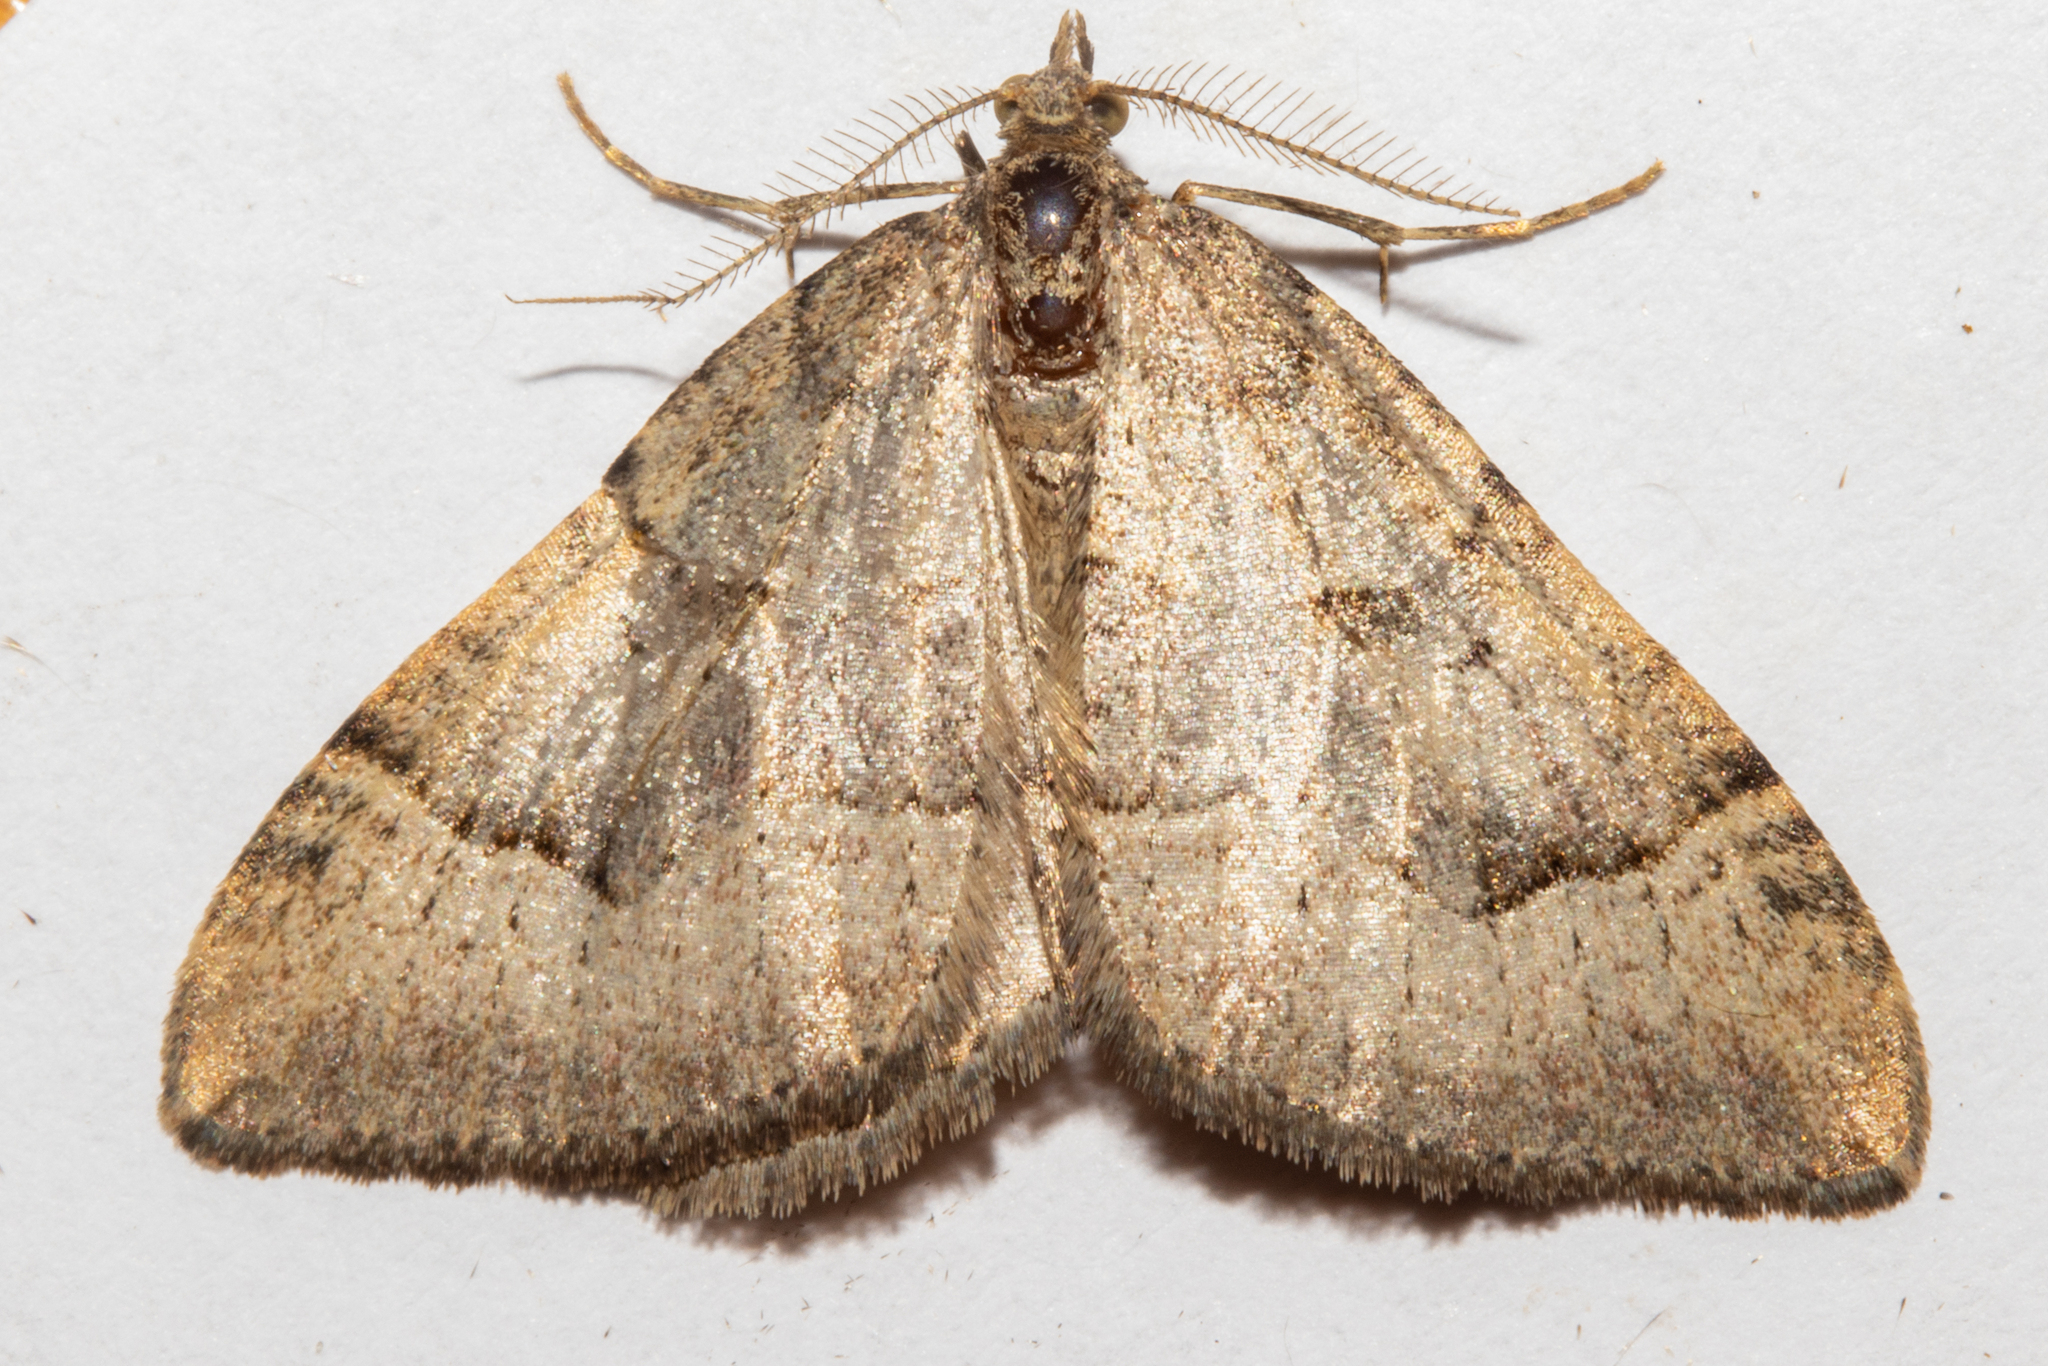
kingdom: Animalia
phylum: Arthropoda
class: Insecta
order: Lepidoptera
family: Geometridae
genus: Epyaxa
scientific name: Epyaxa rosearia
